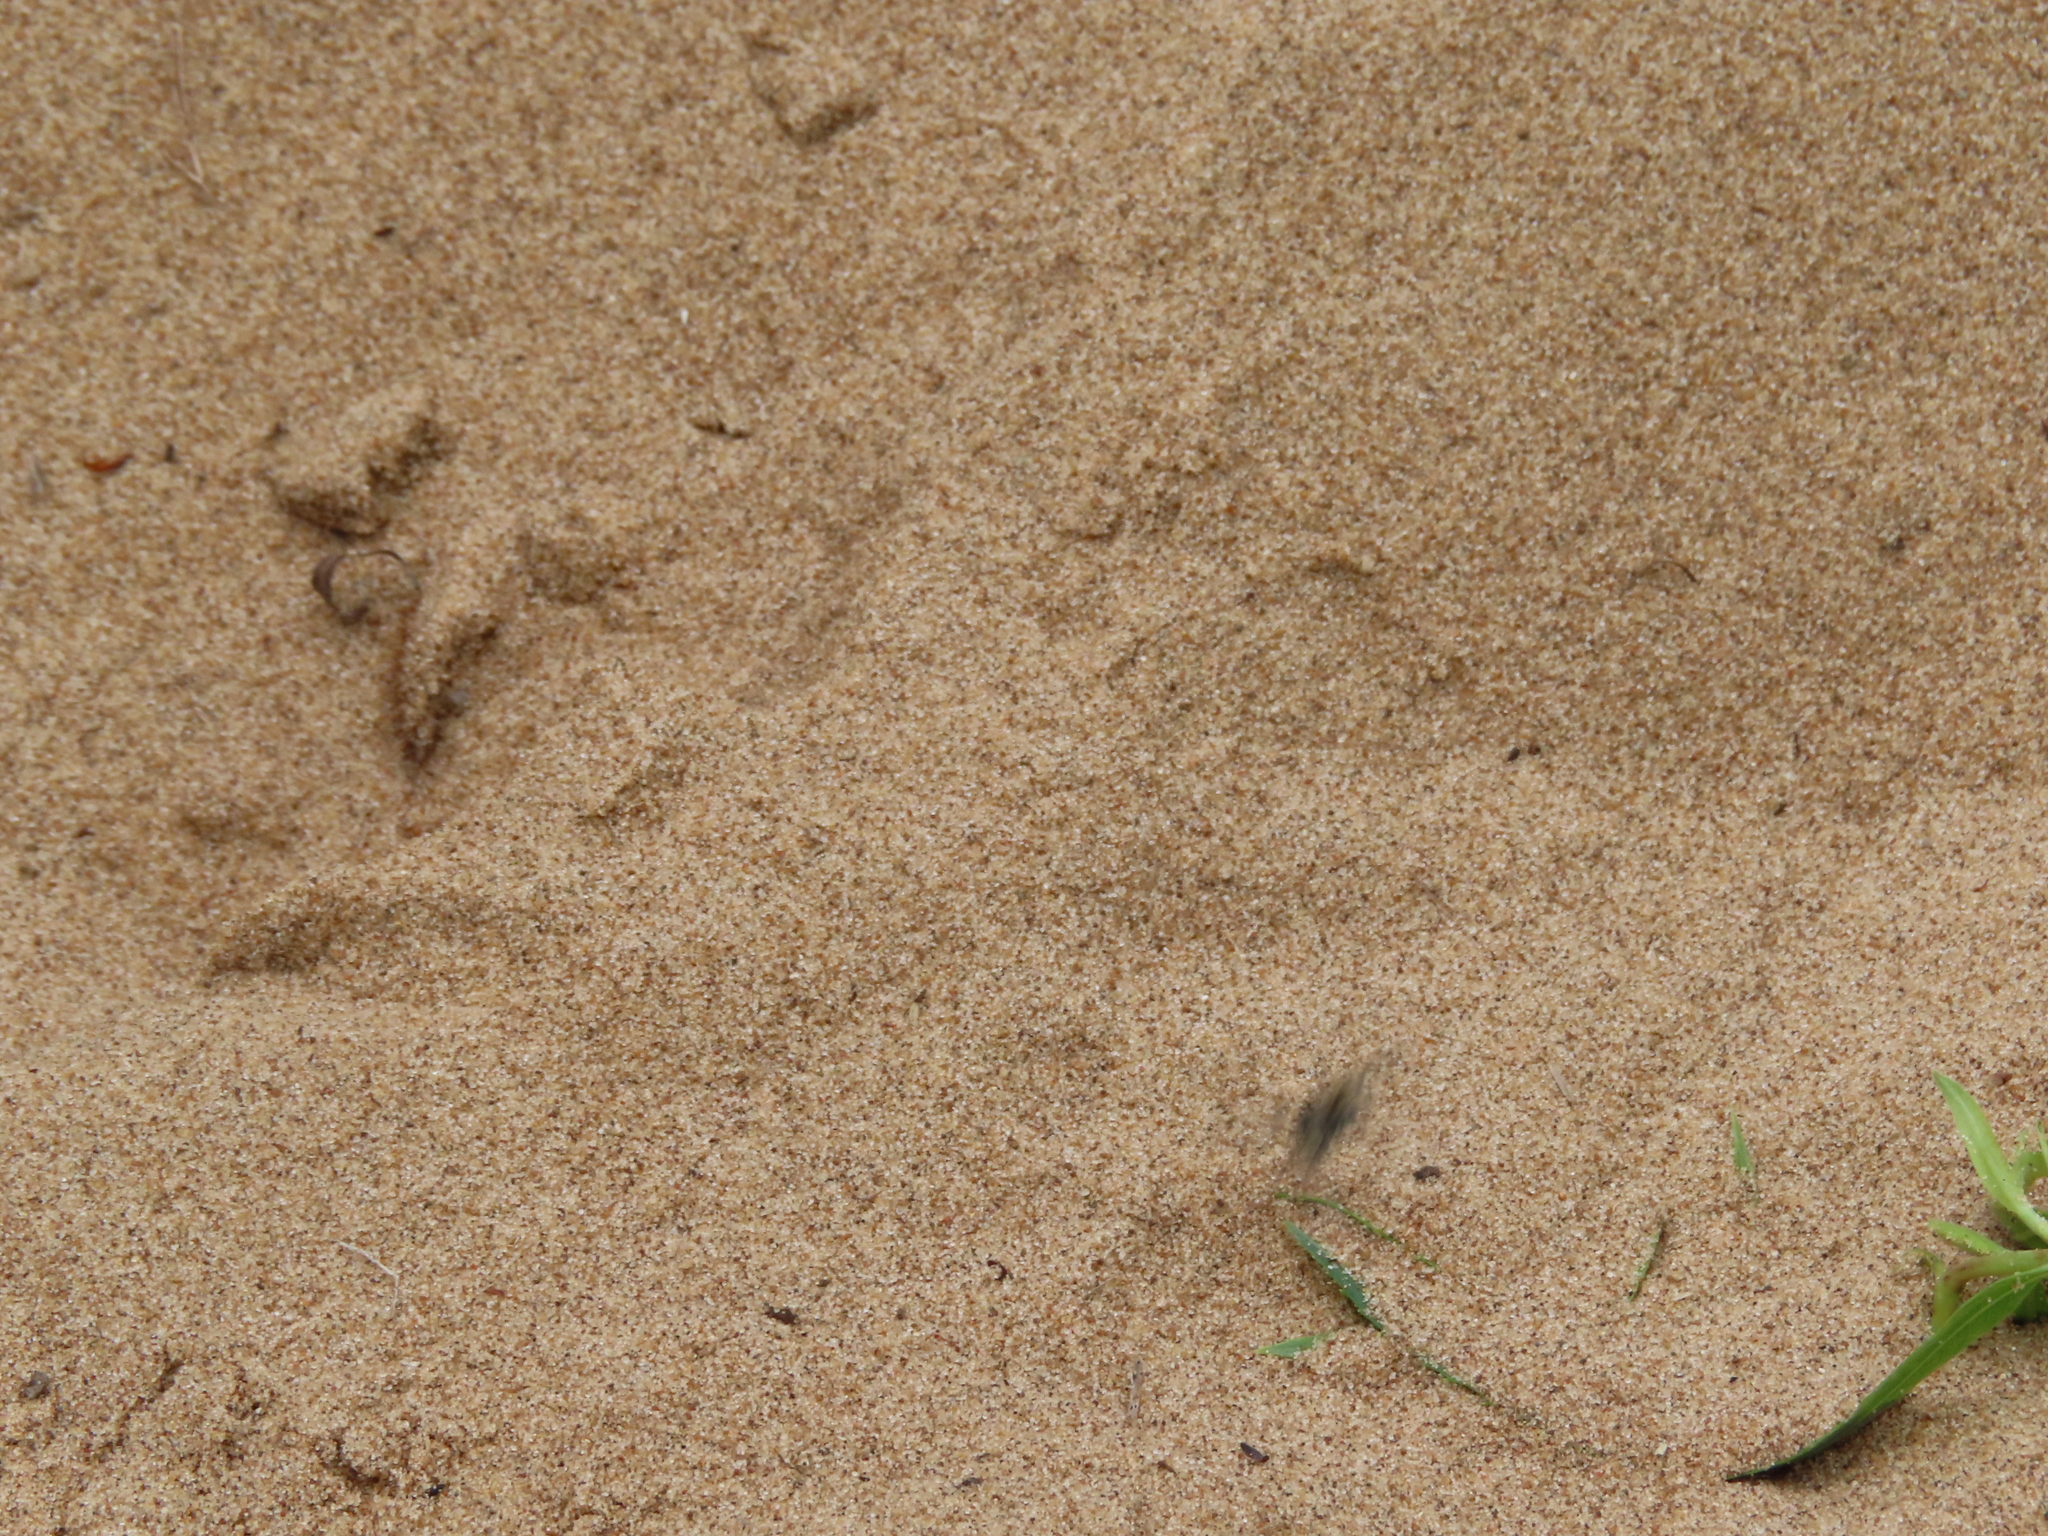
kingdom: Animalia
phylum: Arthropoda
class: Insecta
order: Coleoptera
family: Carabidae
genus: Cicindela
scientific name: Cicindela repanda
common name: Bronzed tiger beetle
